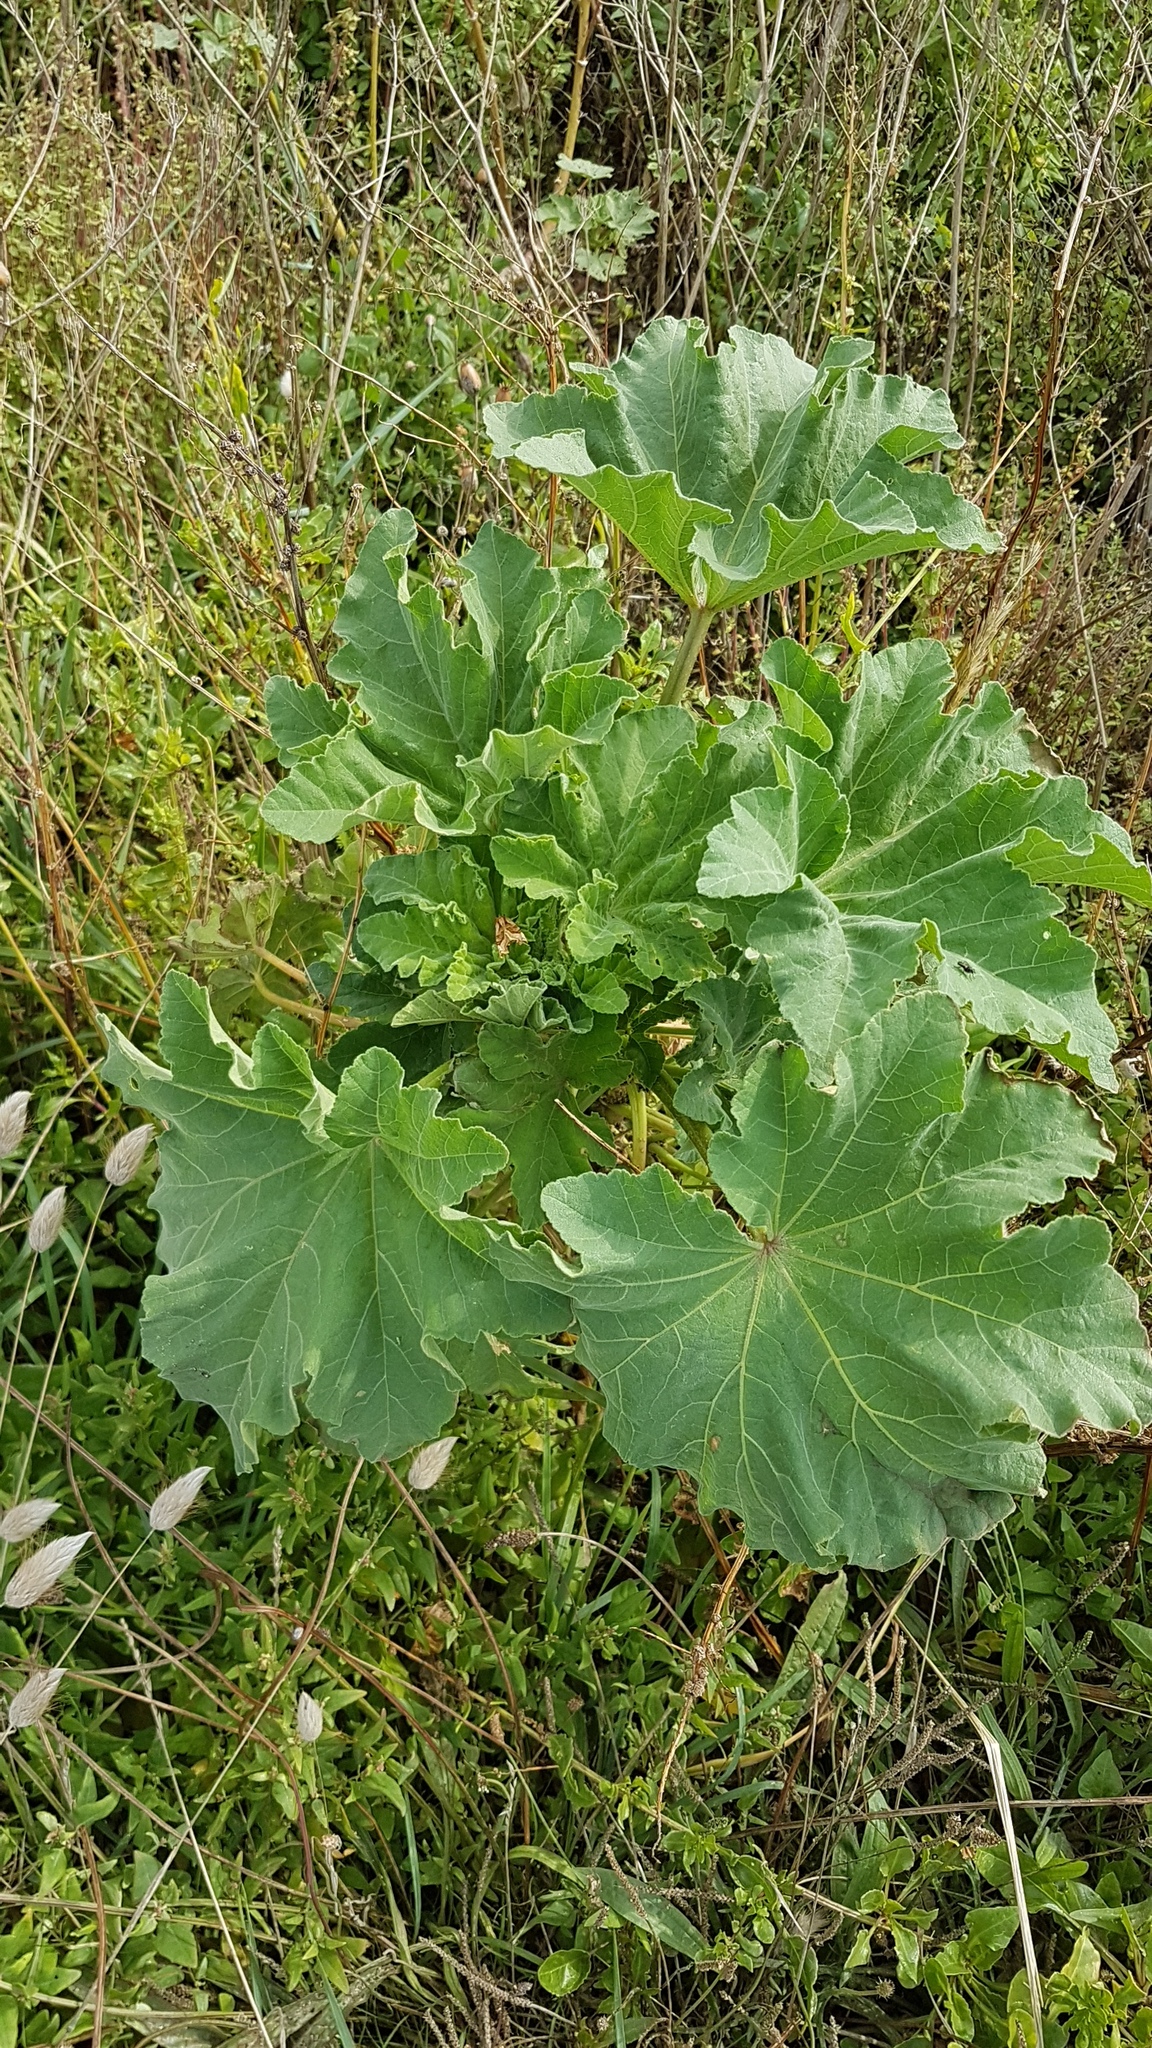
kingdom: Plantae
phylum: Tracheophyta
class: Magnoliopsida
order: Malvales
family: Malvaceae
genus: Malva
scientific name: Malva arborea
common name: Tree mallow
